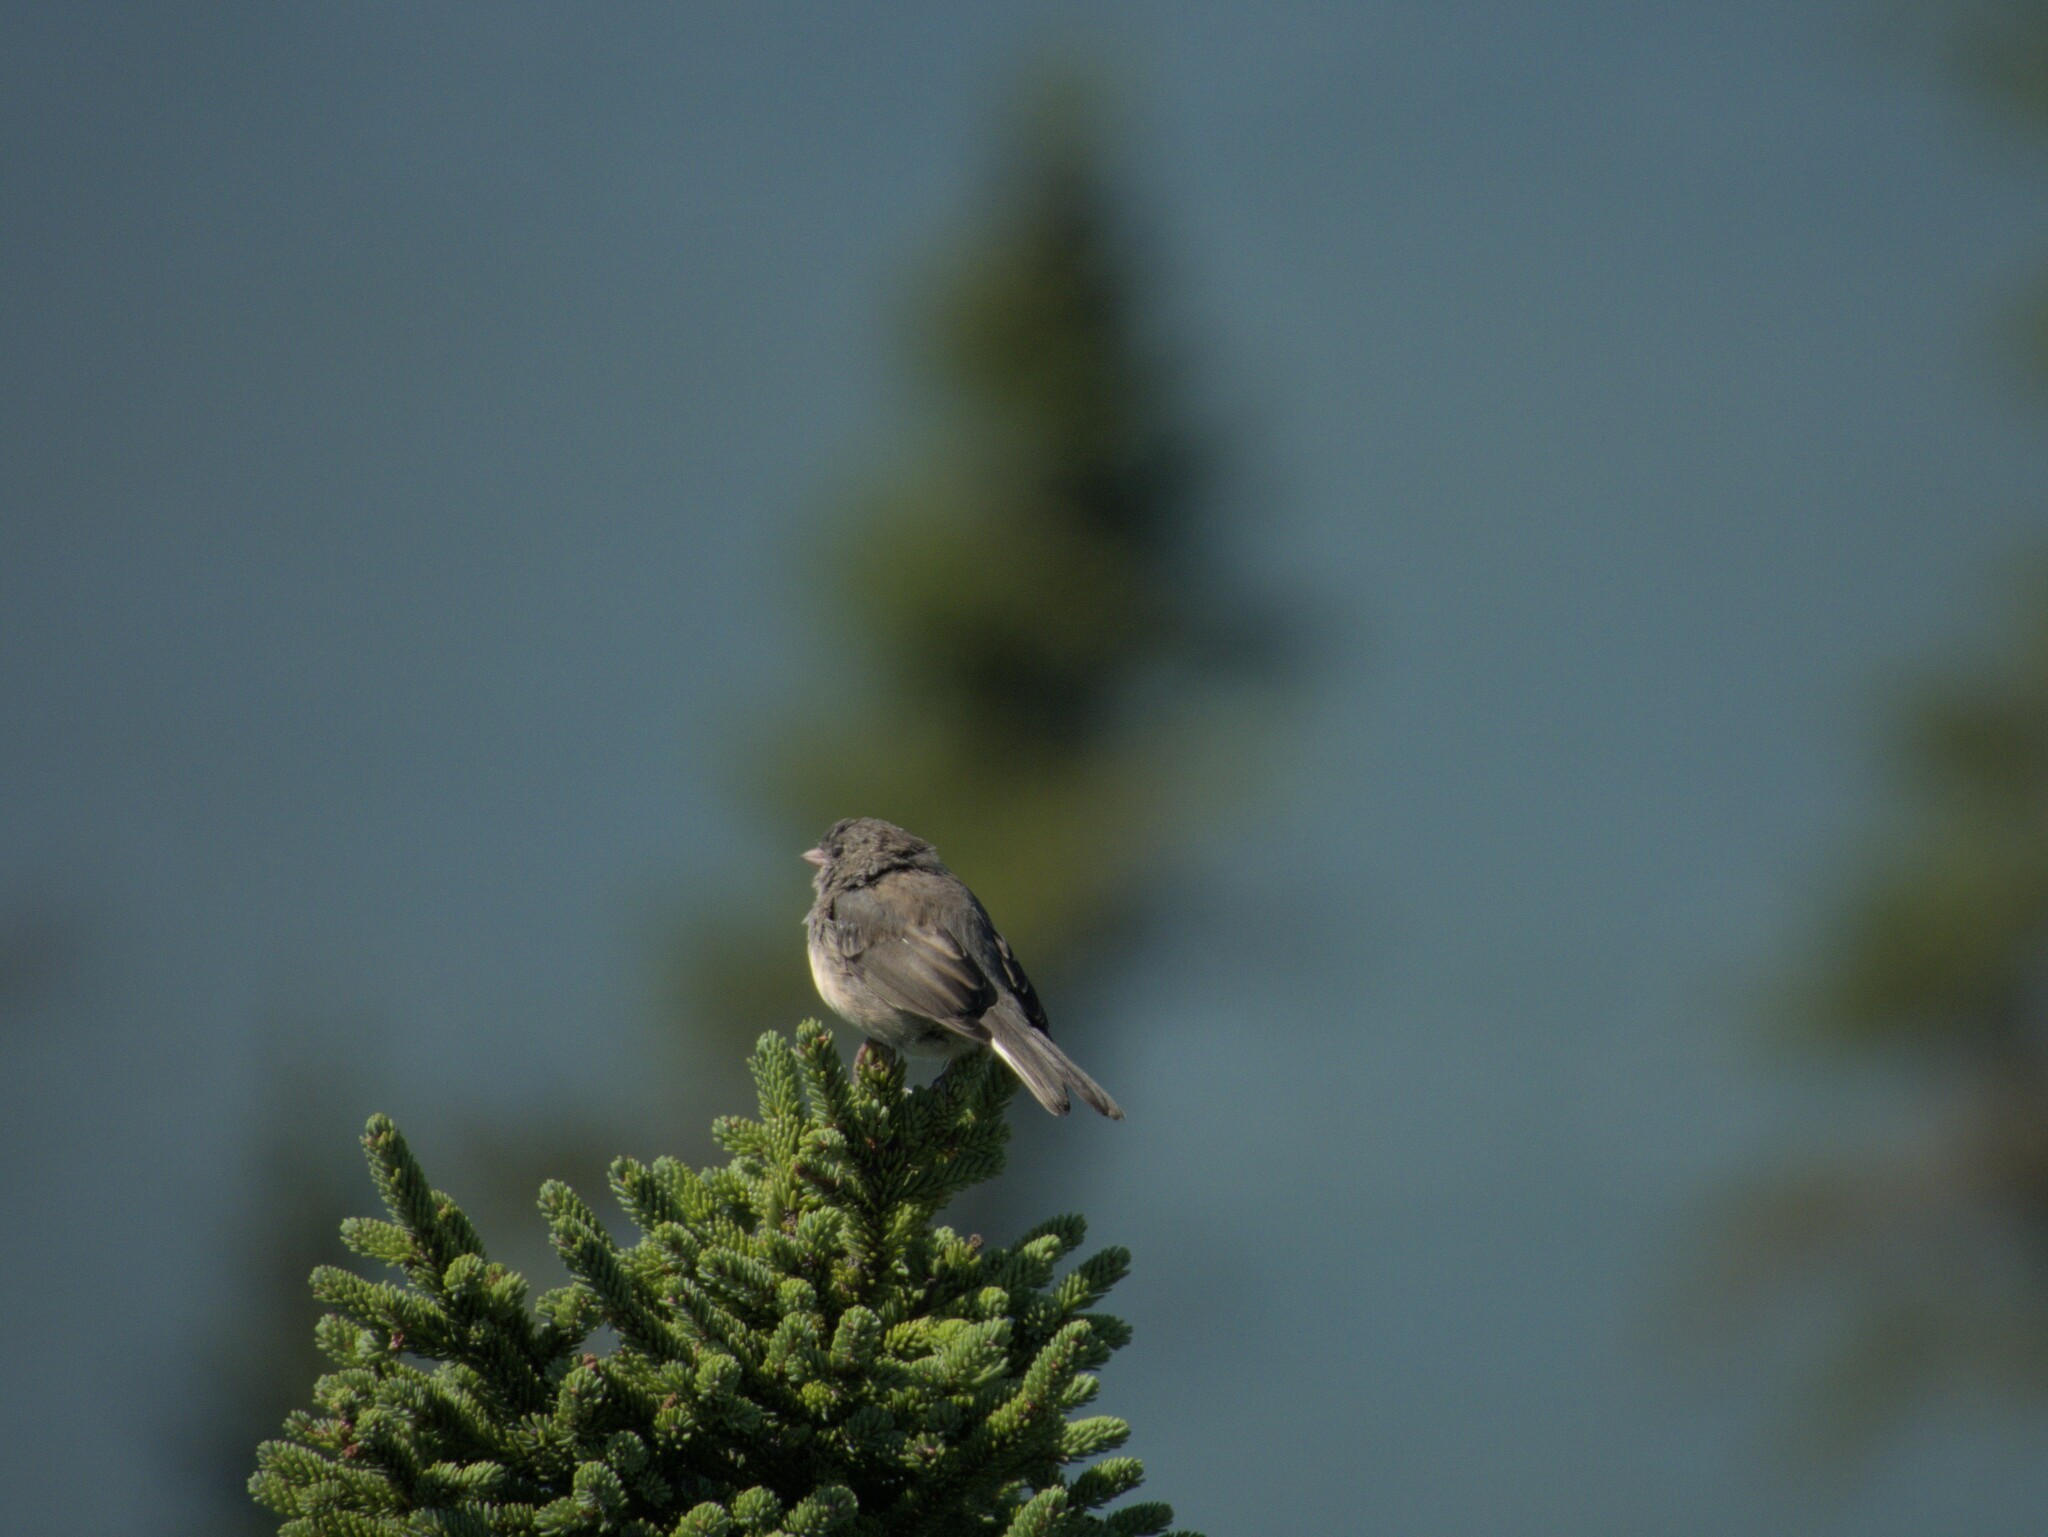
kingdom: Animalia
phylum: Chordata
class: Aves
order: Passeriformes
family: Passerellidae
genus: Junco
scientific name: Junco hyemalis
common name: Dark-eyed junco
